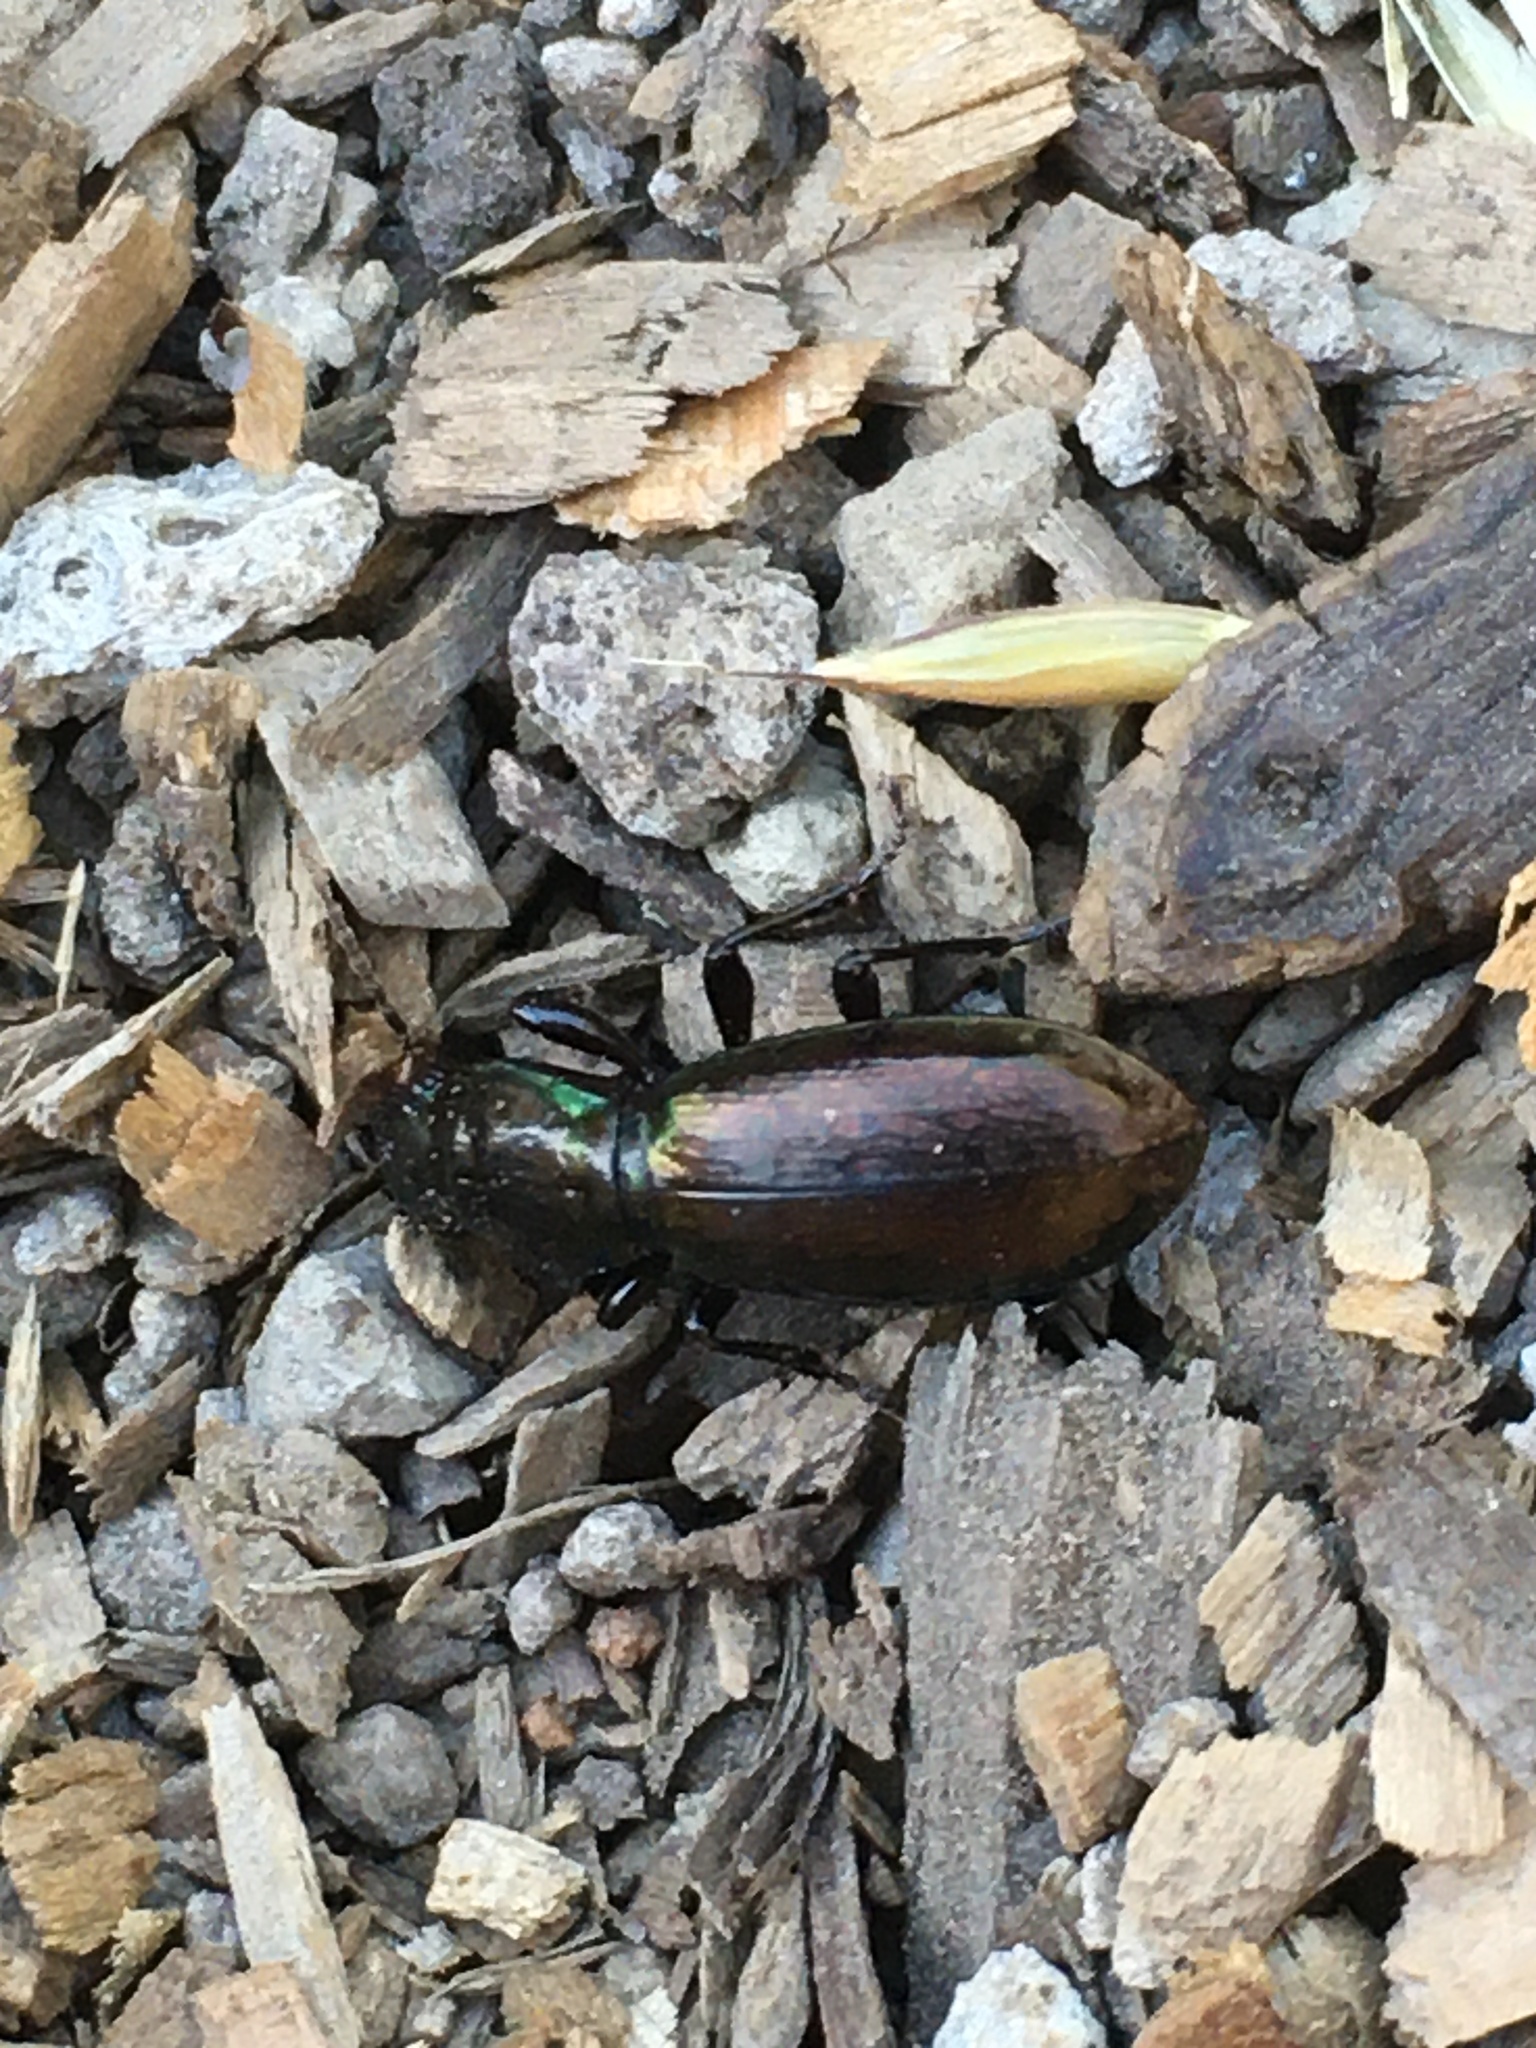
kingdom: Animalia
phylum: Arthropoda
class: Insecta
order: Coleoptera
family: Carabidae
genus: Creobius
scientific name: Creobius eydouxii
